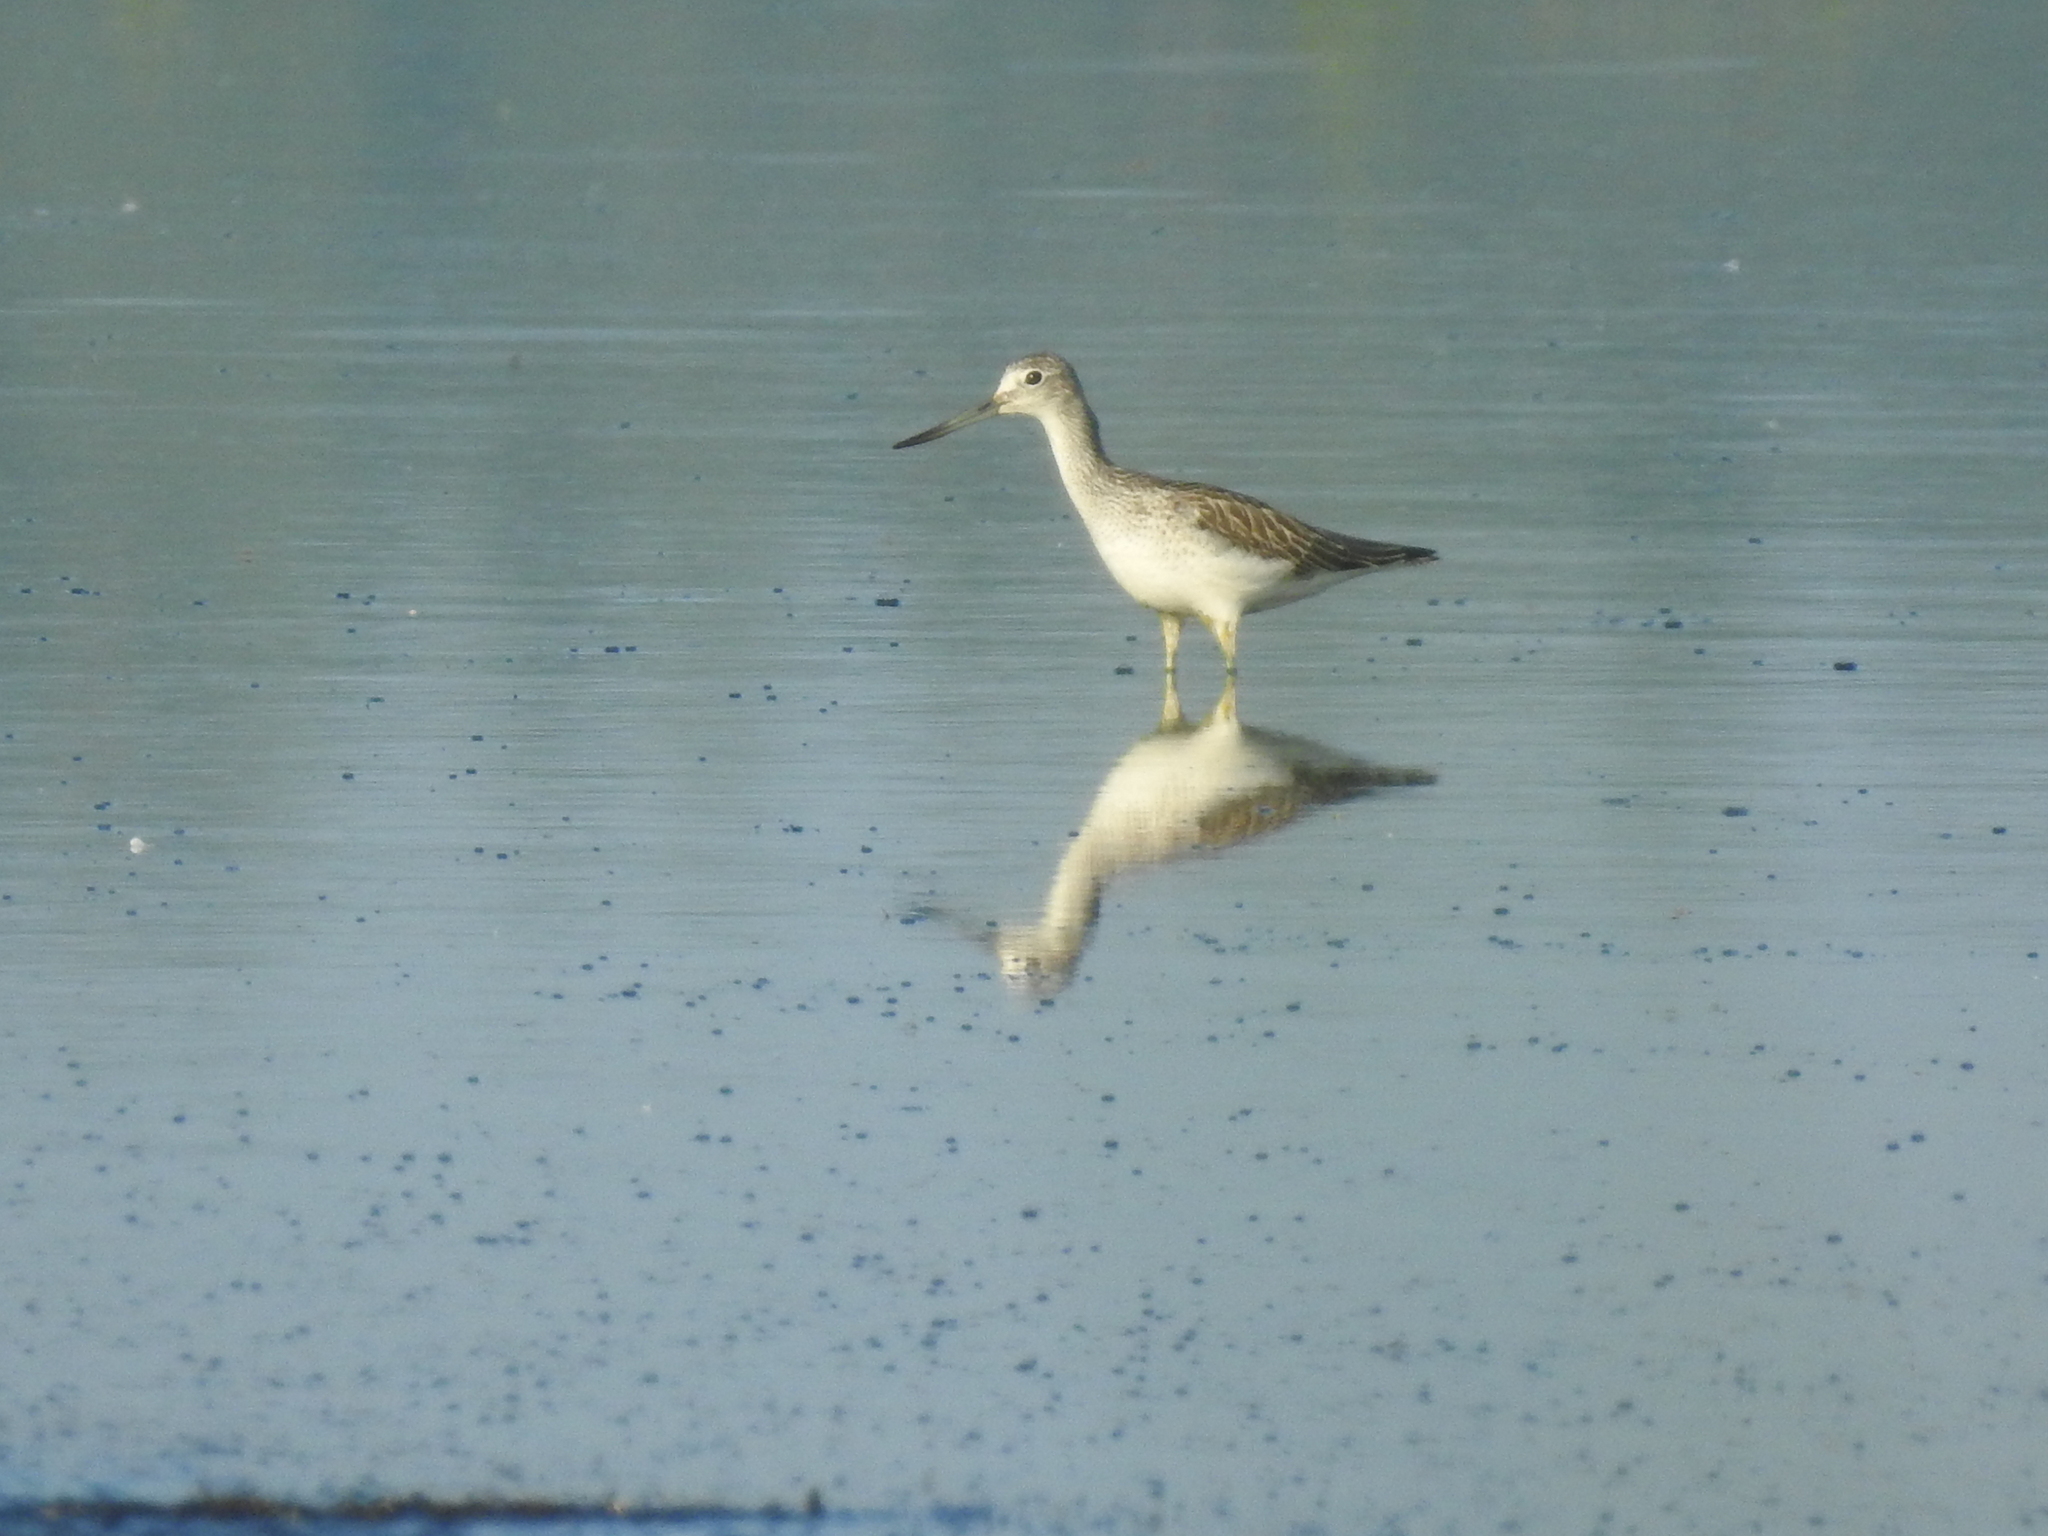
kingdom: Animalia
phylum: Chordata
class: Aves
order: Charadriiformes
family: Scolopacidae
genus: Tringa
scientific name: Tringa nebularia
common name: Common greenshank
